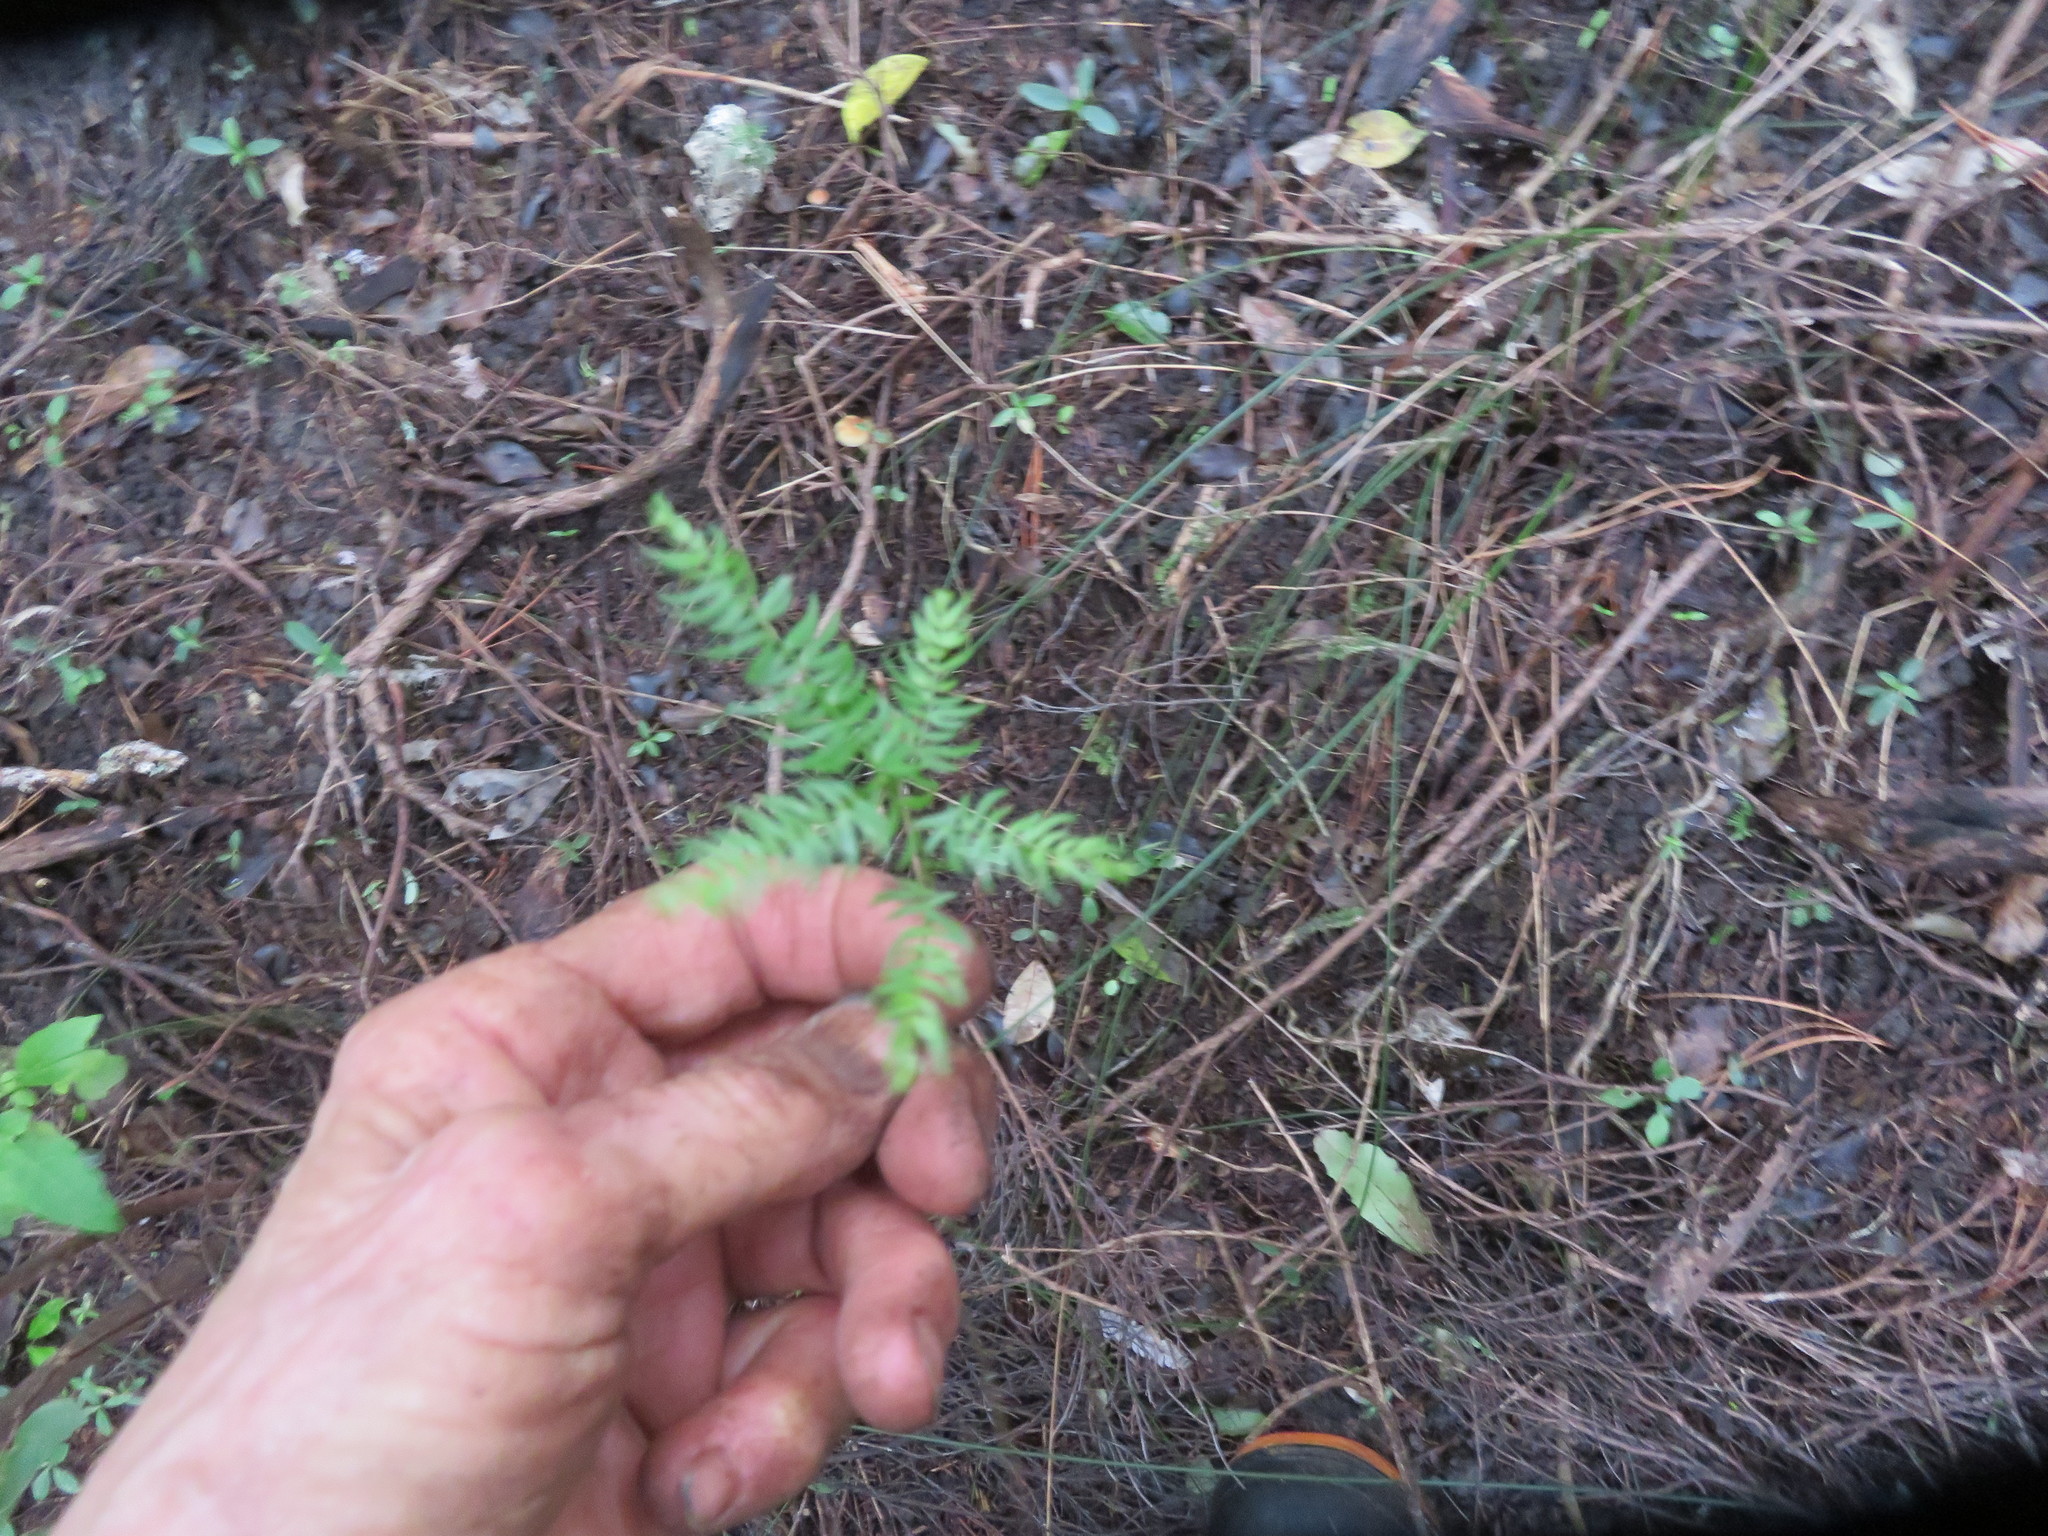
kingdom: Plantae
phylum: Tracheophyta
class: Liliopsida
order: Asparagales
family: Asparagaceae
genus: Asparagus
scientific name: Asparagus scandens
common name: Asparagus-fern
